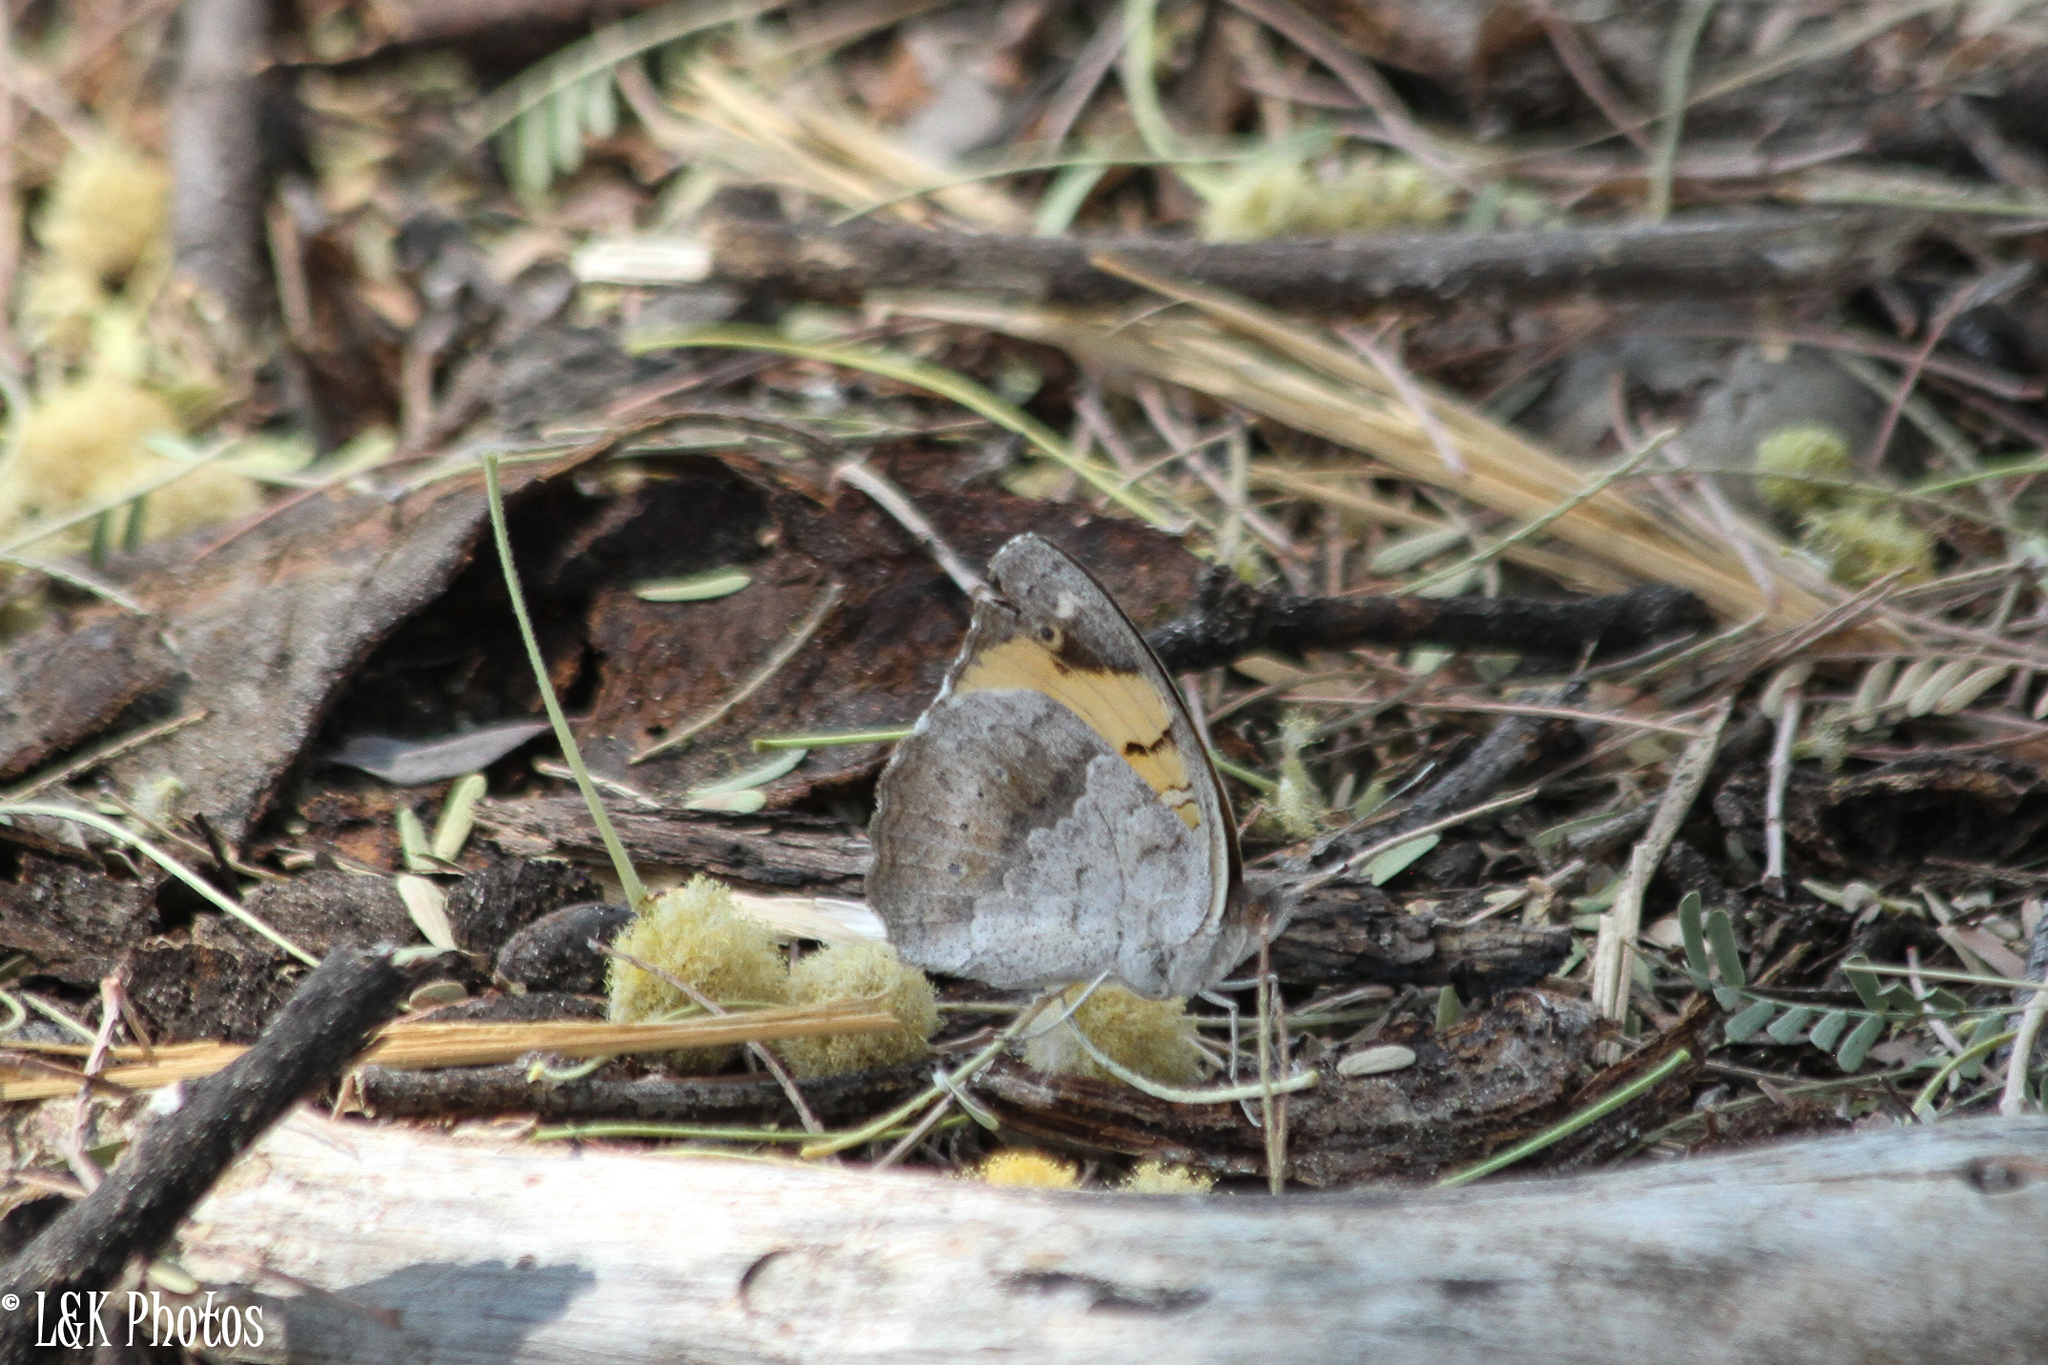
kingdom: Animalia
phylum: Arthropoda
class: Insecta
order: Lepidoptera
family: Nymphalidae
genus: Junonia
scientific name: Junonia hierta
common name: Yellow pansy
